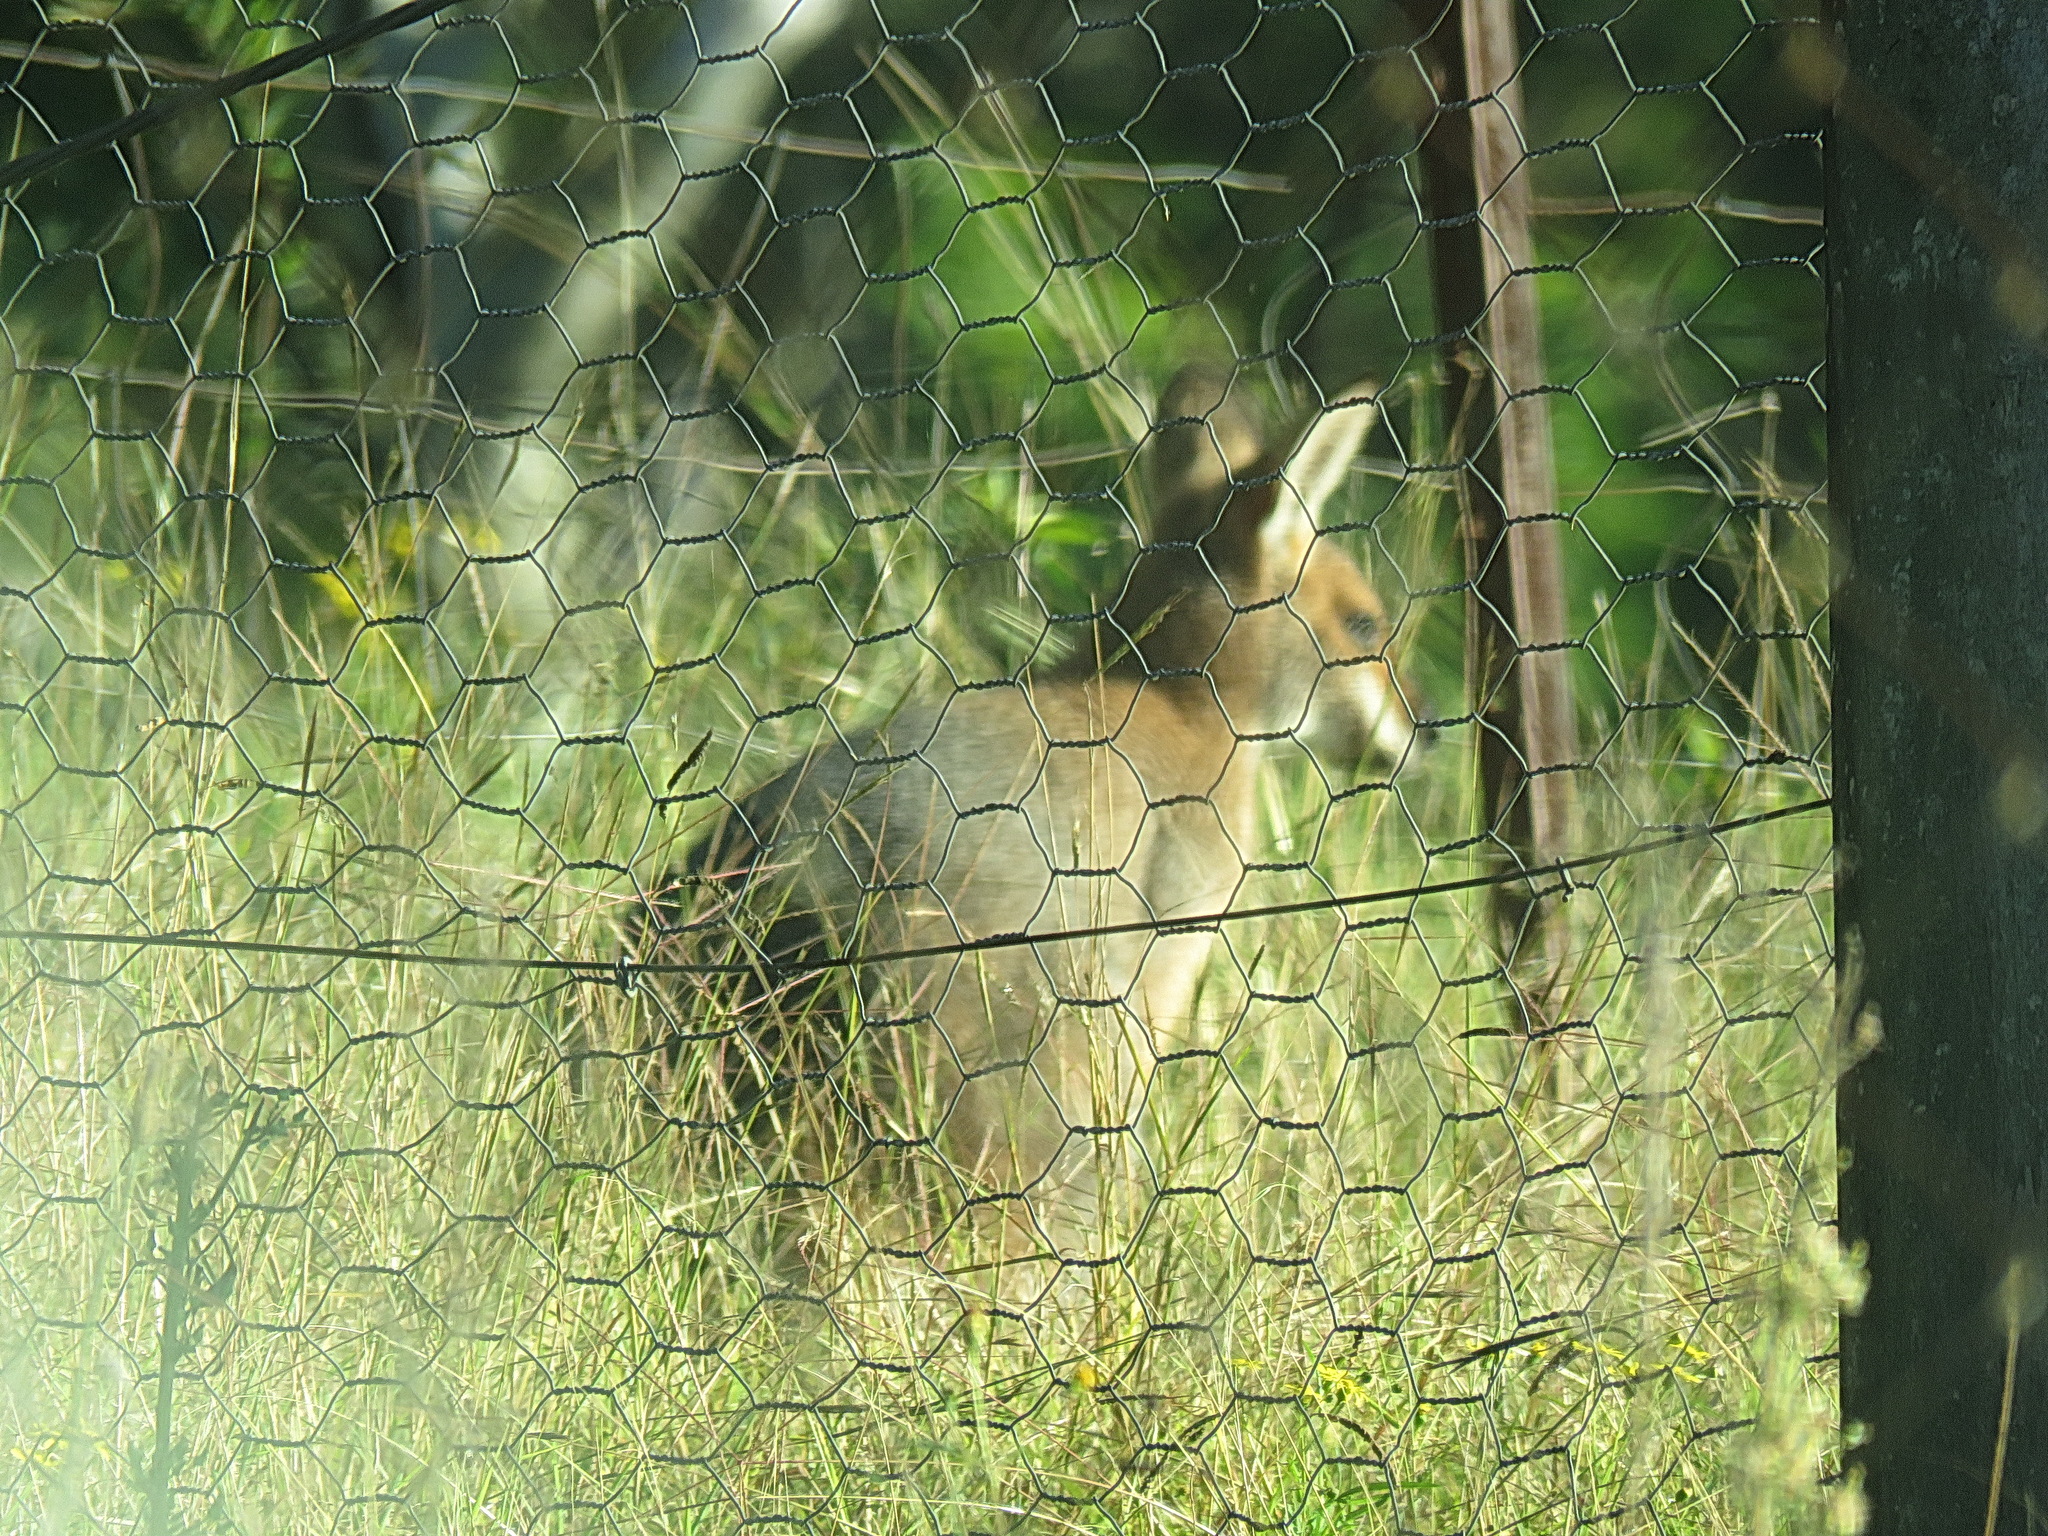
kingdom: Animalia
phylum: Chordata
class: Mammalia
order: Diprotodontia
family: Macropodidae
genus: Notamacropus
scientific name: Notamacropus rufogriseus
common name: Red-necked wallaby
